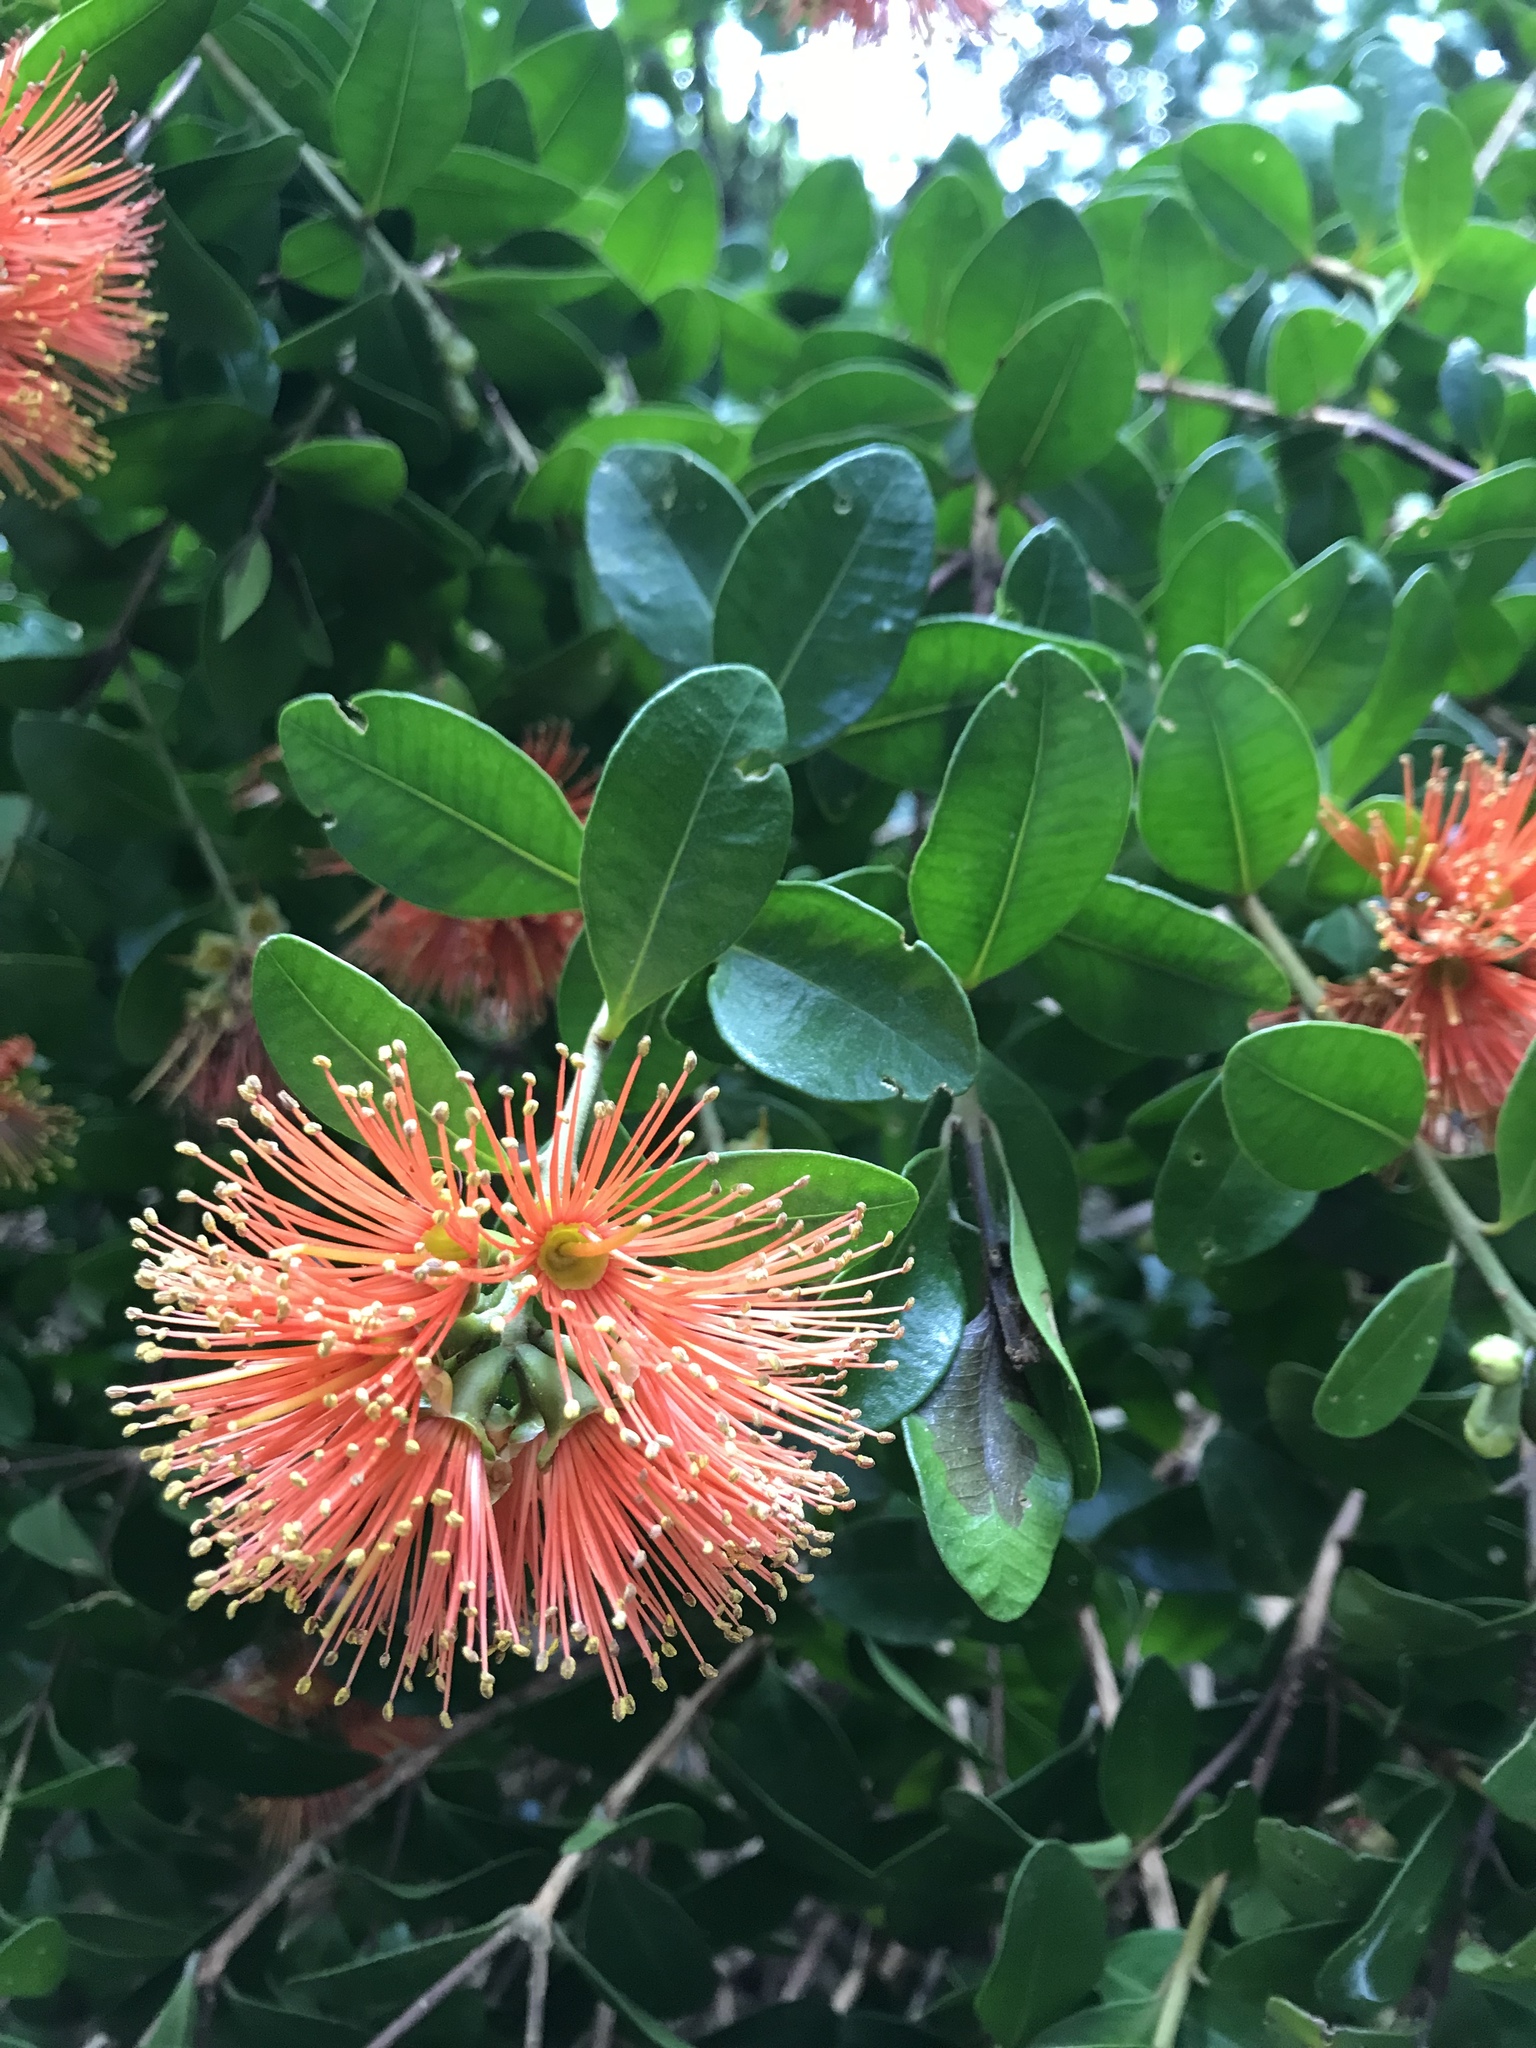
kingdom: Plantae
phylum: Tracheophyta
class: Magnoliopsida
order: Myrtales
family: Myrtaceae
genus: Metrosideros
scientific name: Metrosideros fulgens
